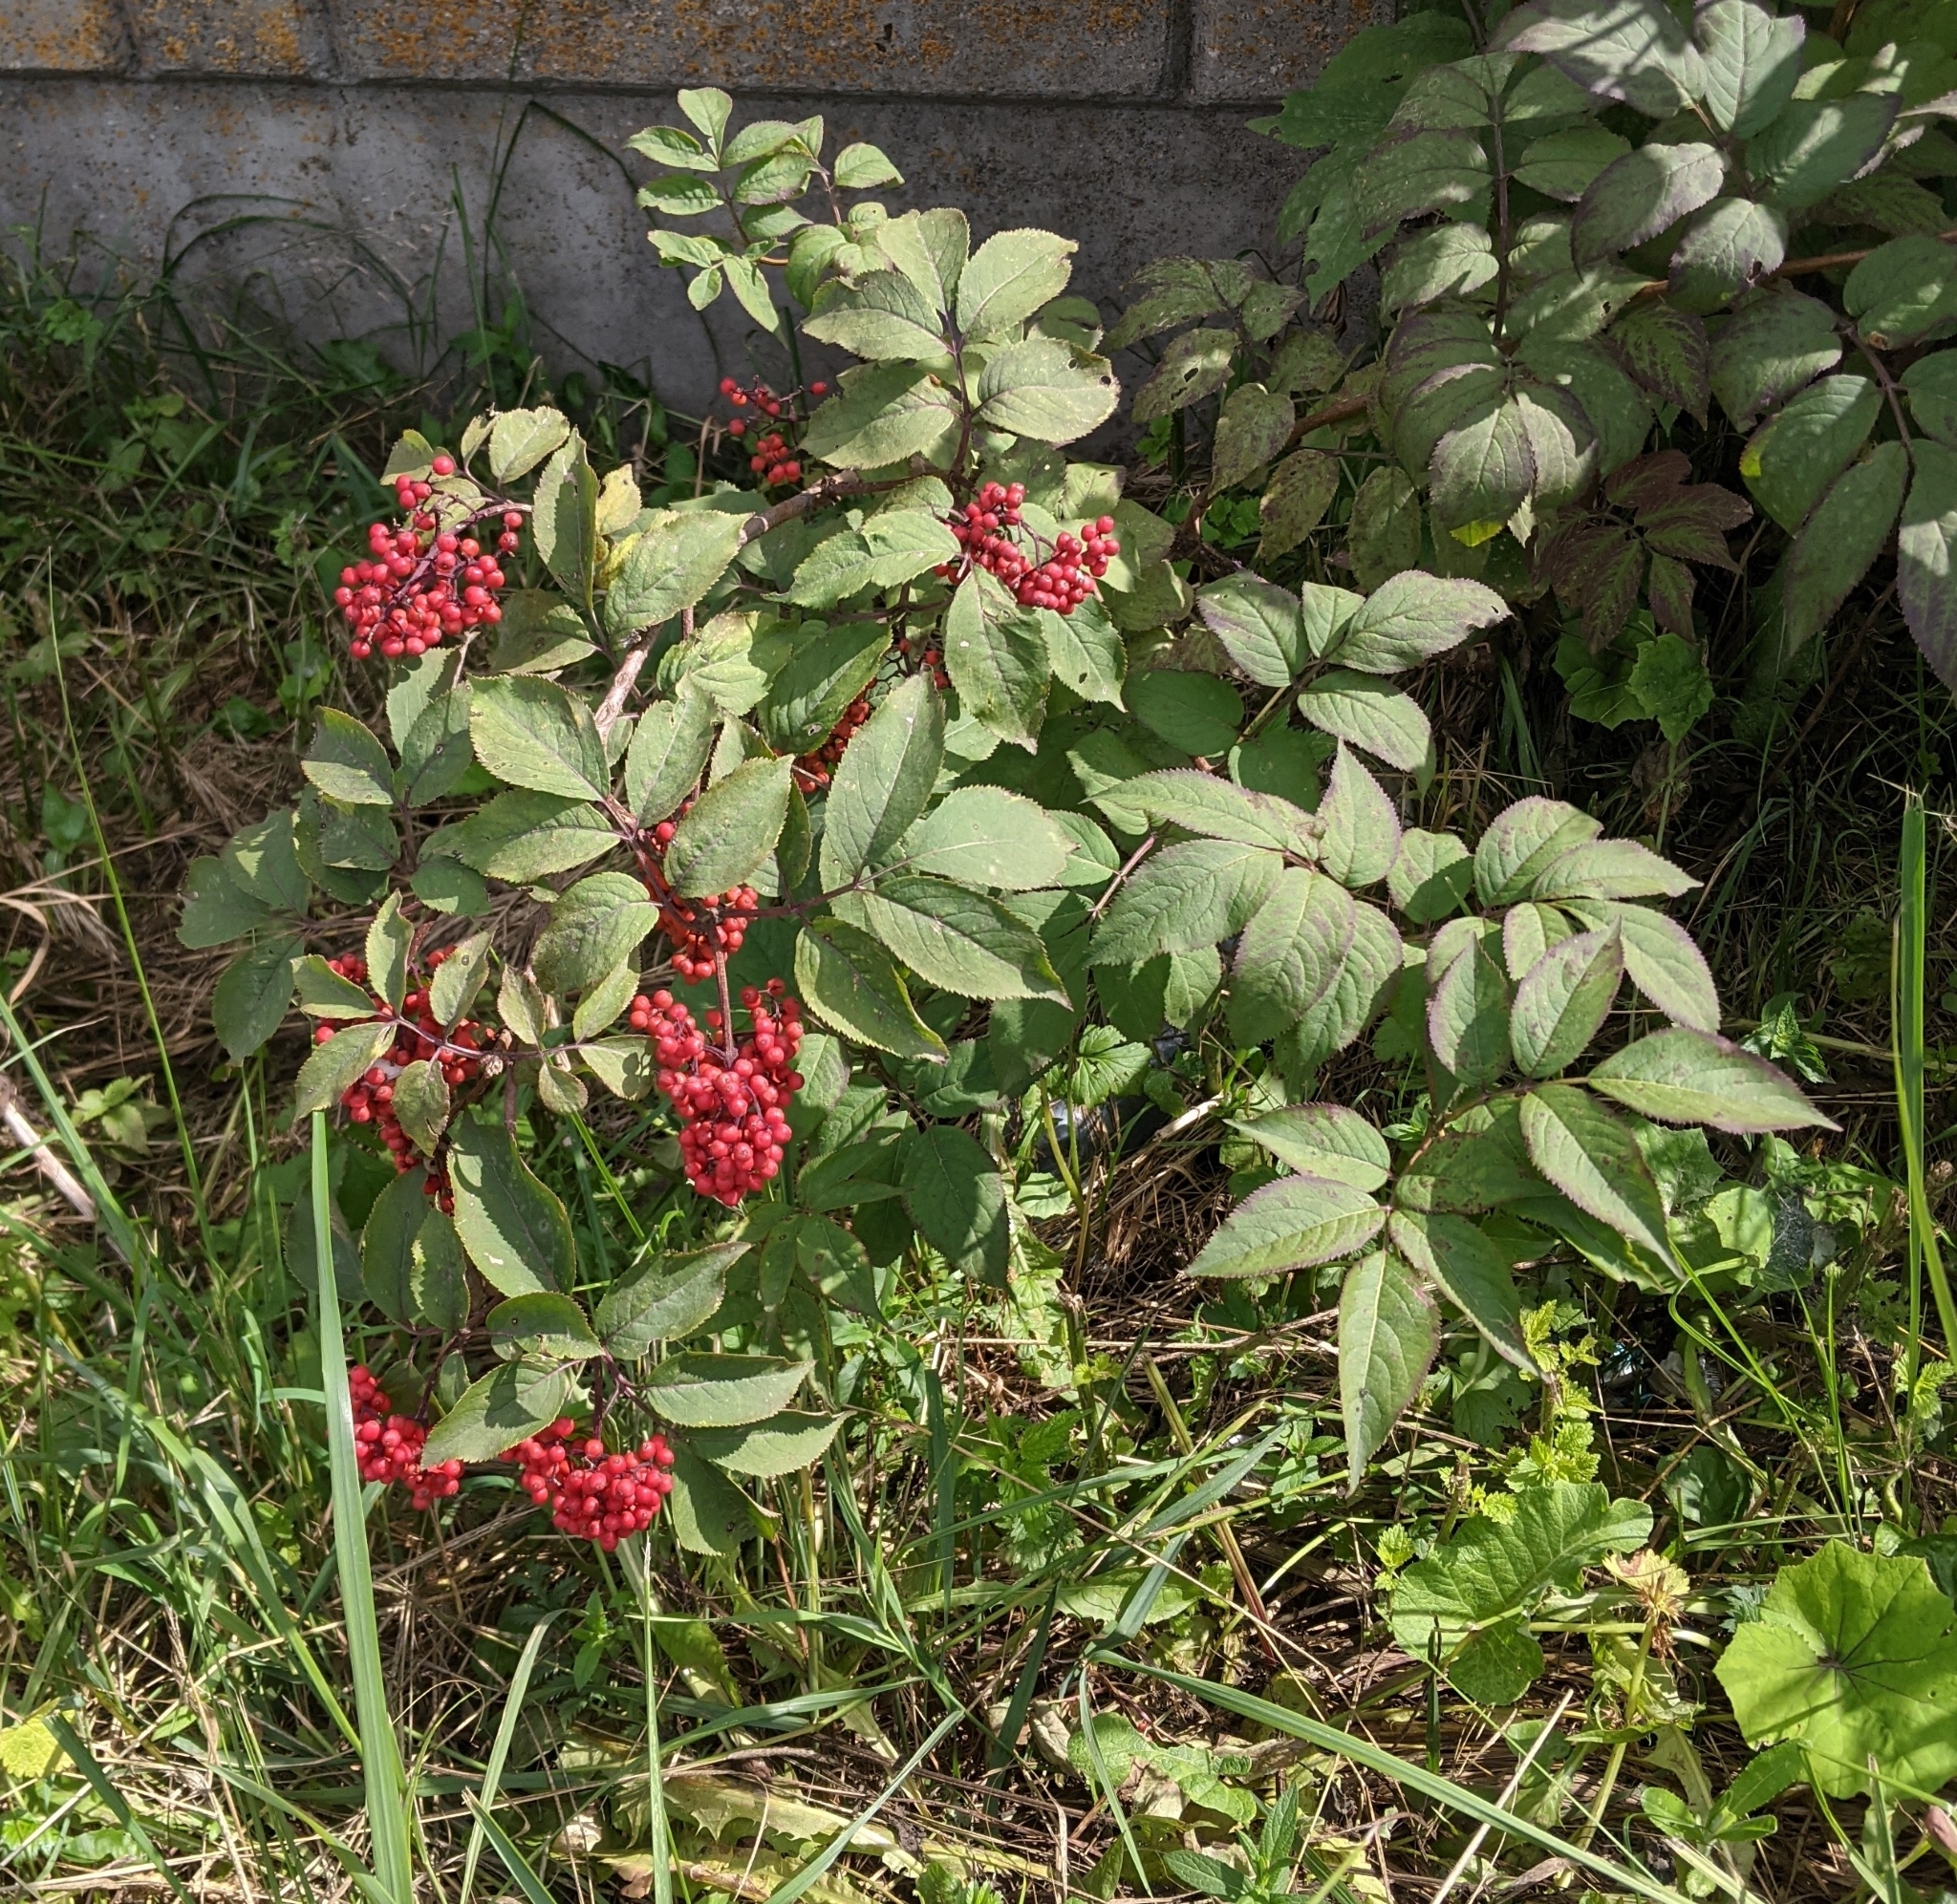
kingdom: Plantae
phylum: Tracheophyta
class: Magnoliopsida
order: Dipsacales
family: Viburnaceae
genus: Sambucus
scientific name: Sambucus racemosa
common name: Red-berried elder
